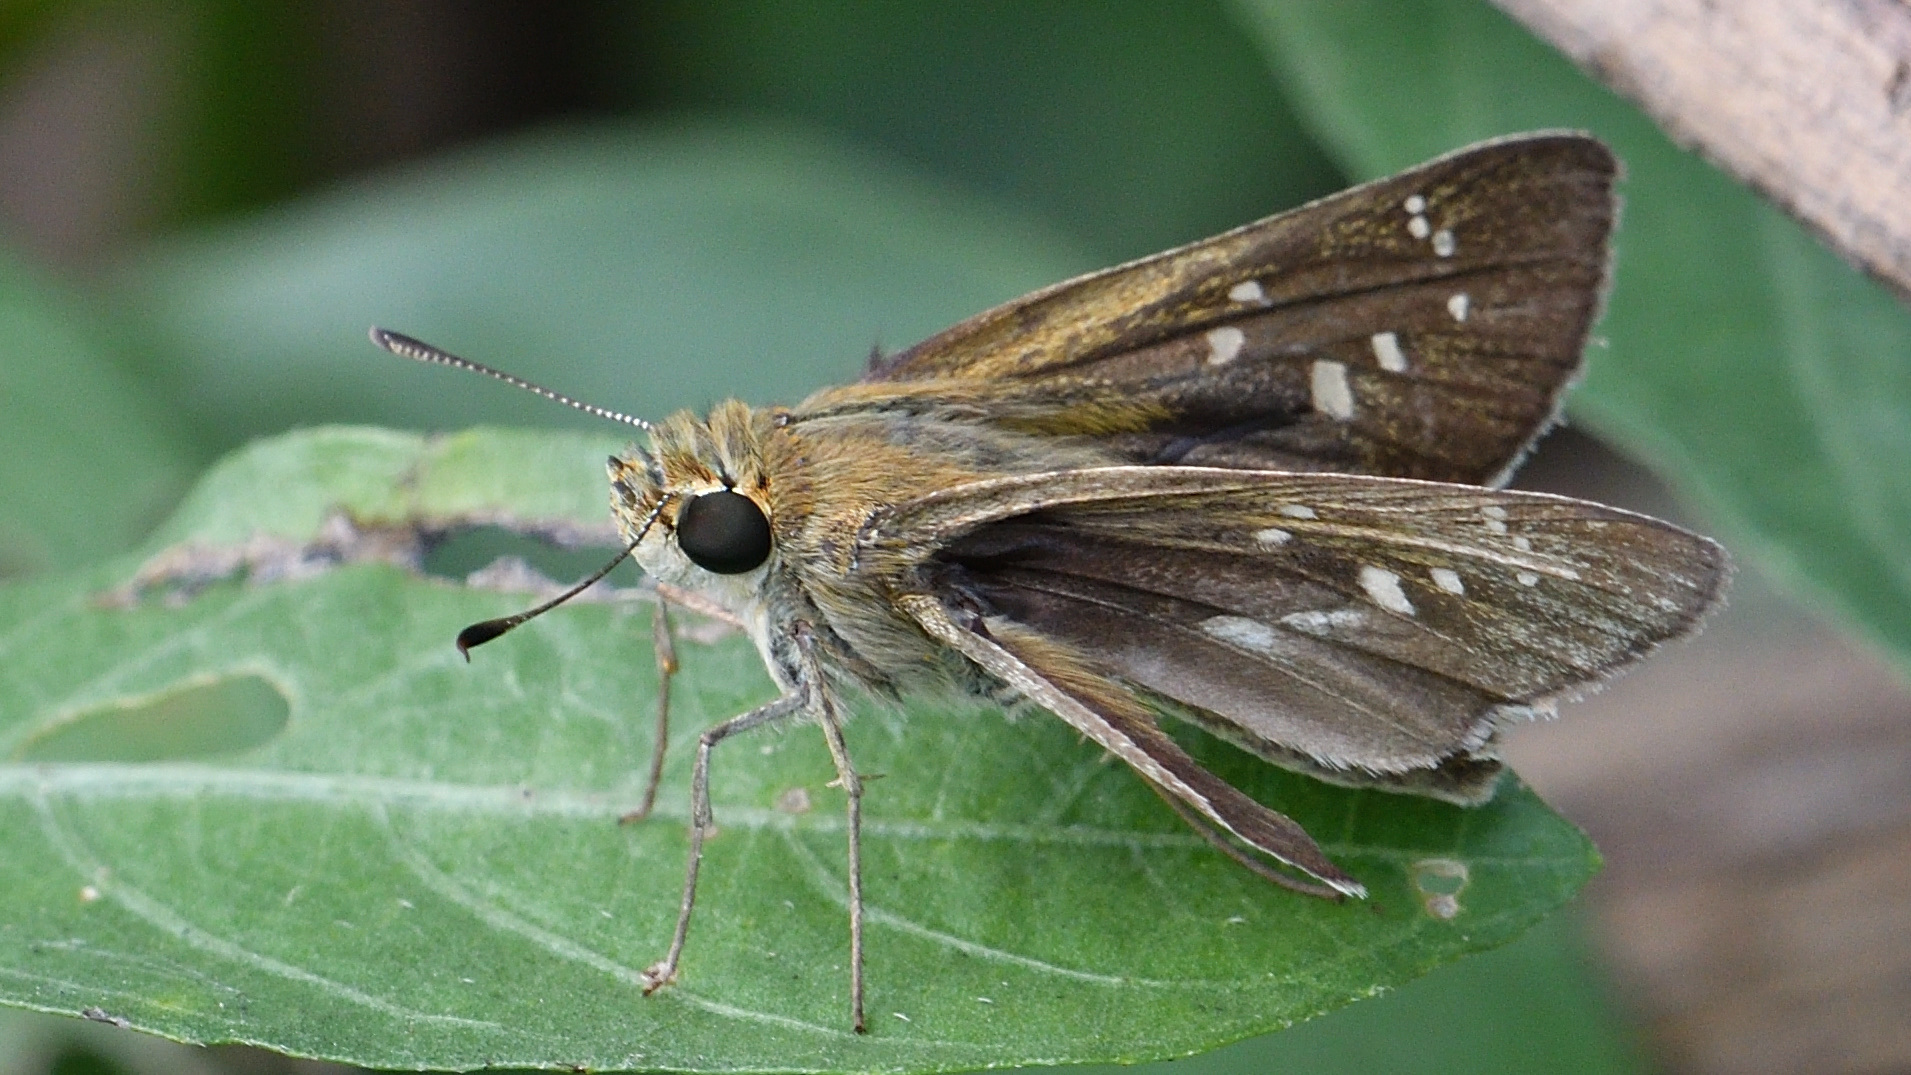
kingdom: Animalia
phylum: Arthropoda
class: Insecta
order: Lepidoptera
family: Hesperiidae
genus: Pelopidas
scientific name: Pelopidas mathias
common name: Black-branded swift
